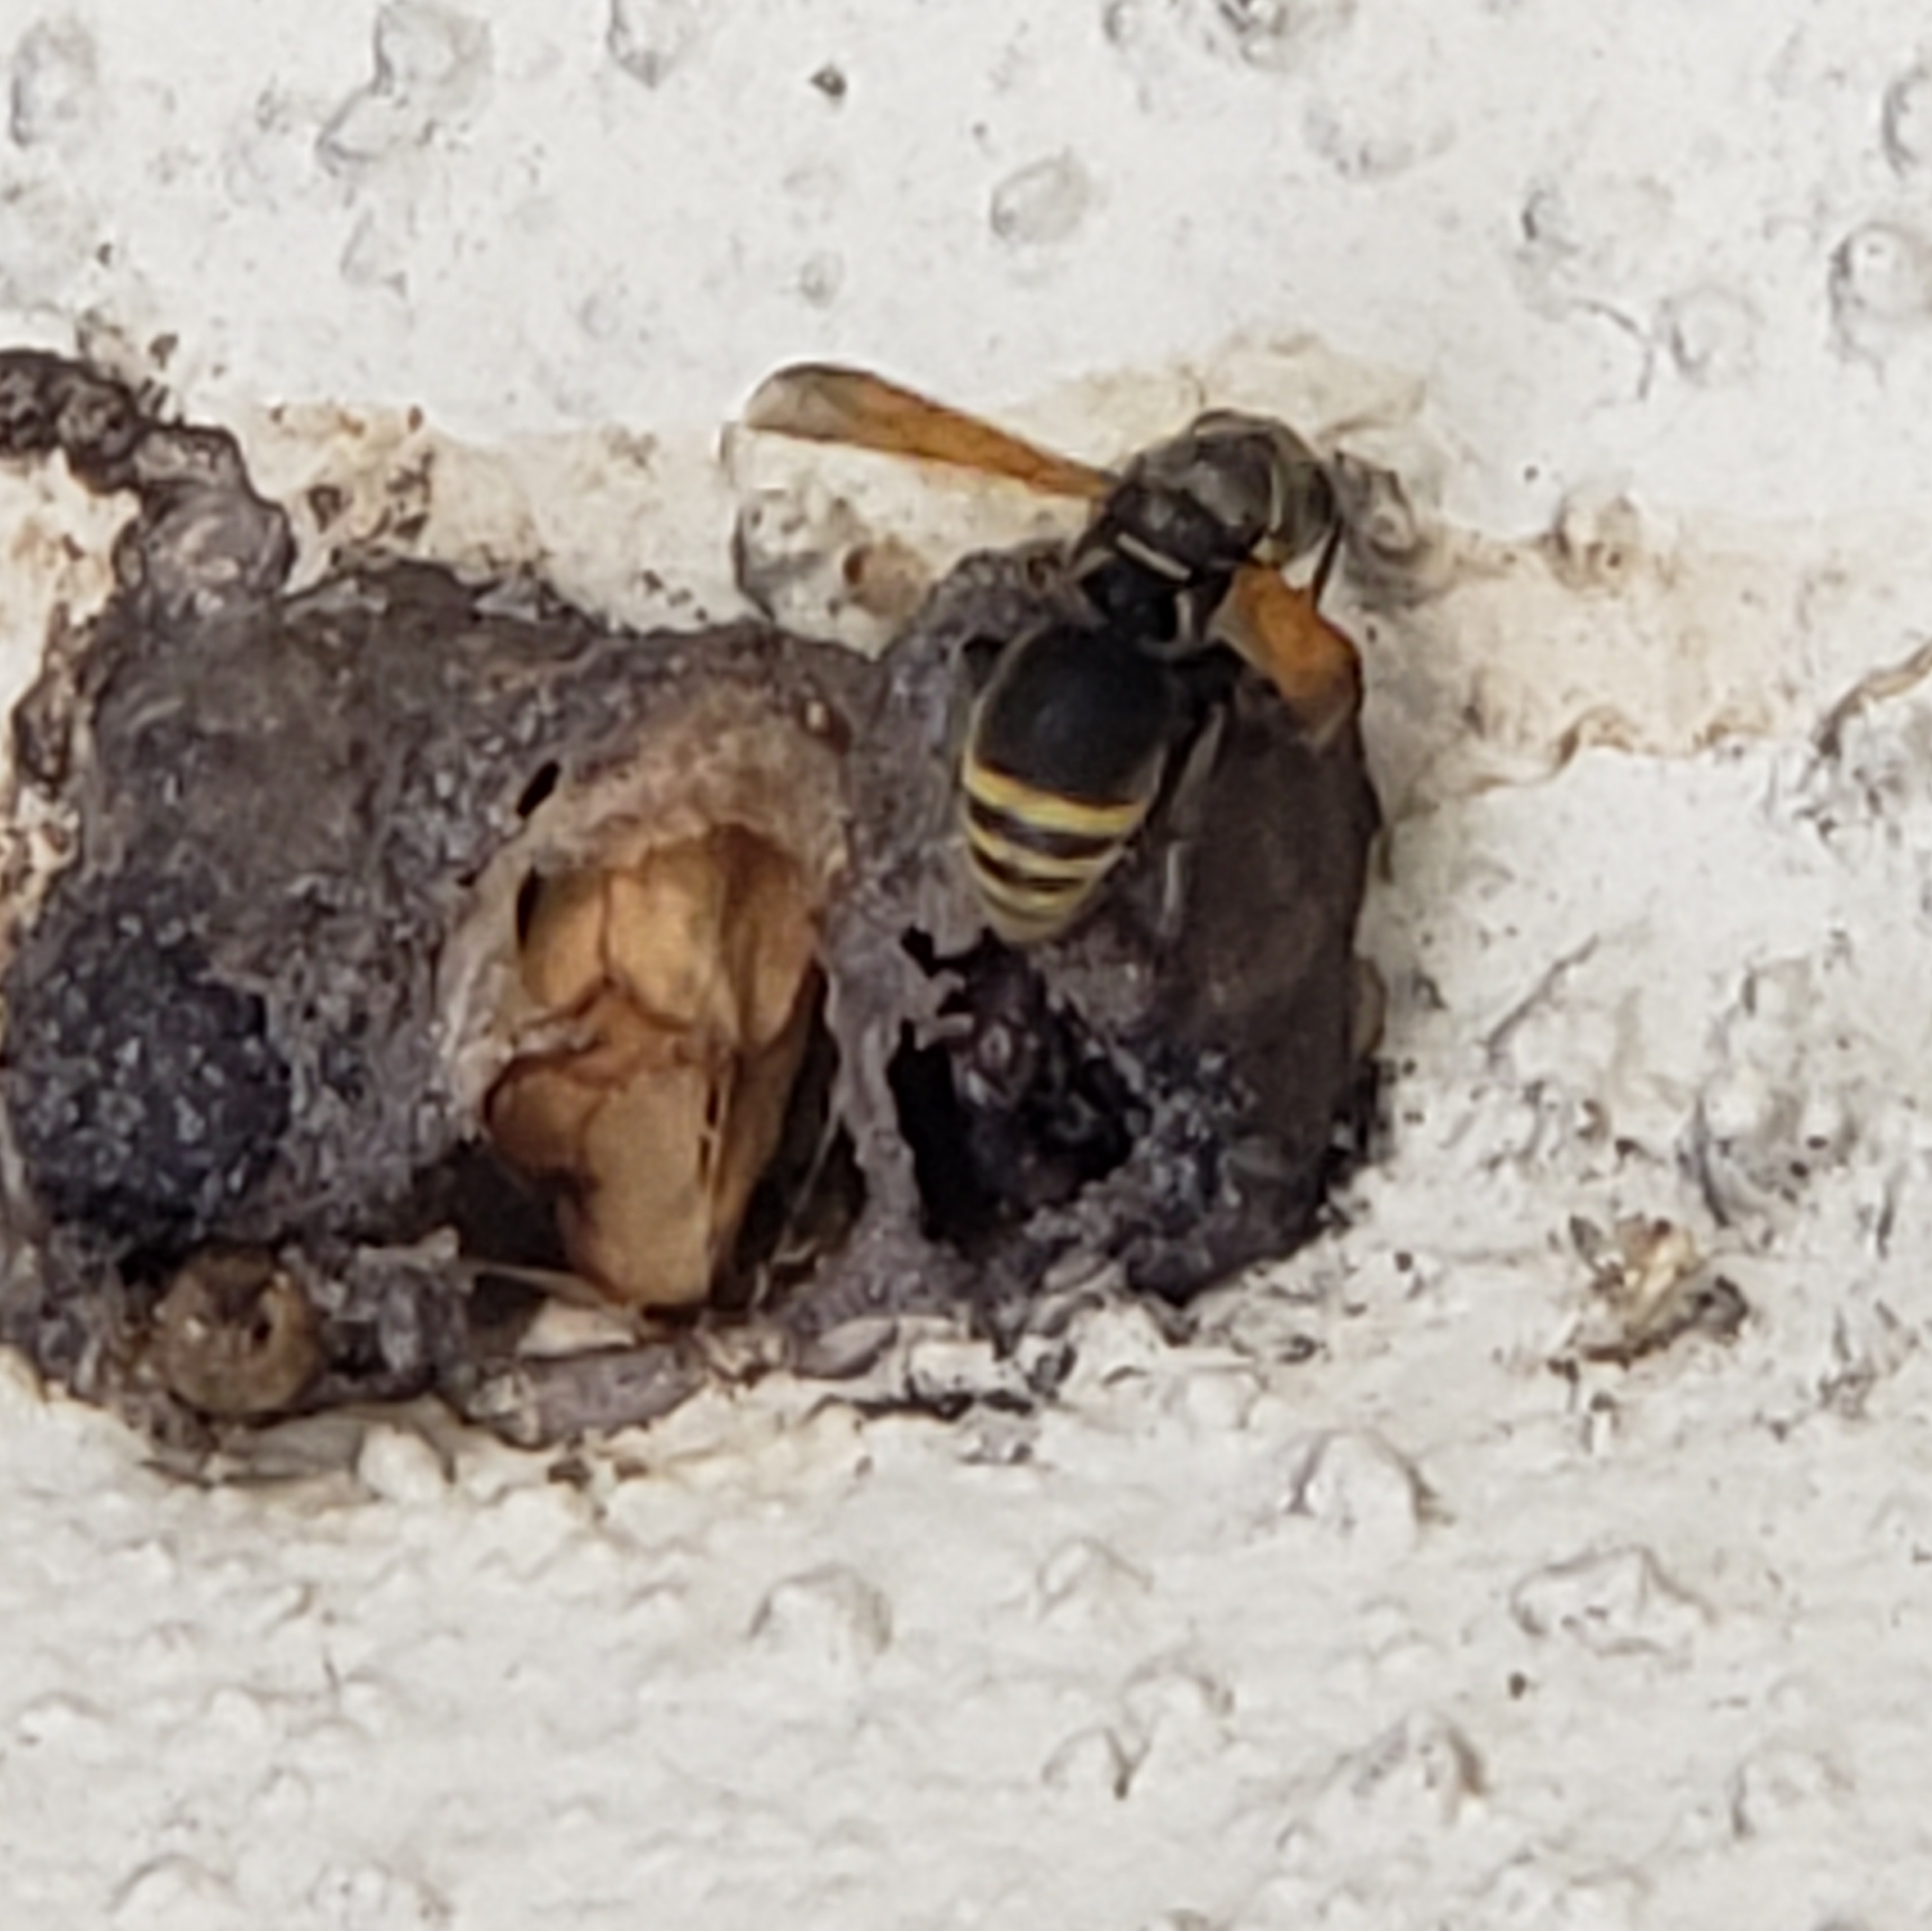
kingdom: Animalia
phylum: Arthropoda
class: Insecta
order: Hymenoptera
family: Eumenidae
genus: Pachodynerus
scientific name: Pachodynerus nasidens
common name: Key hole wasp
